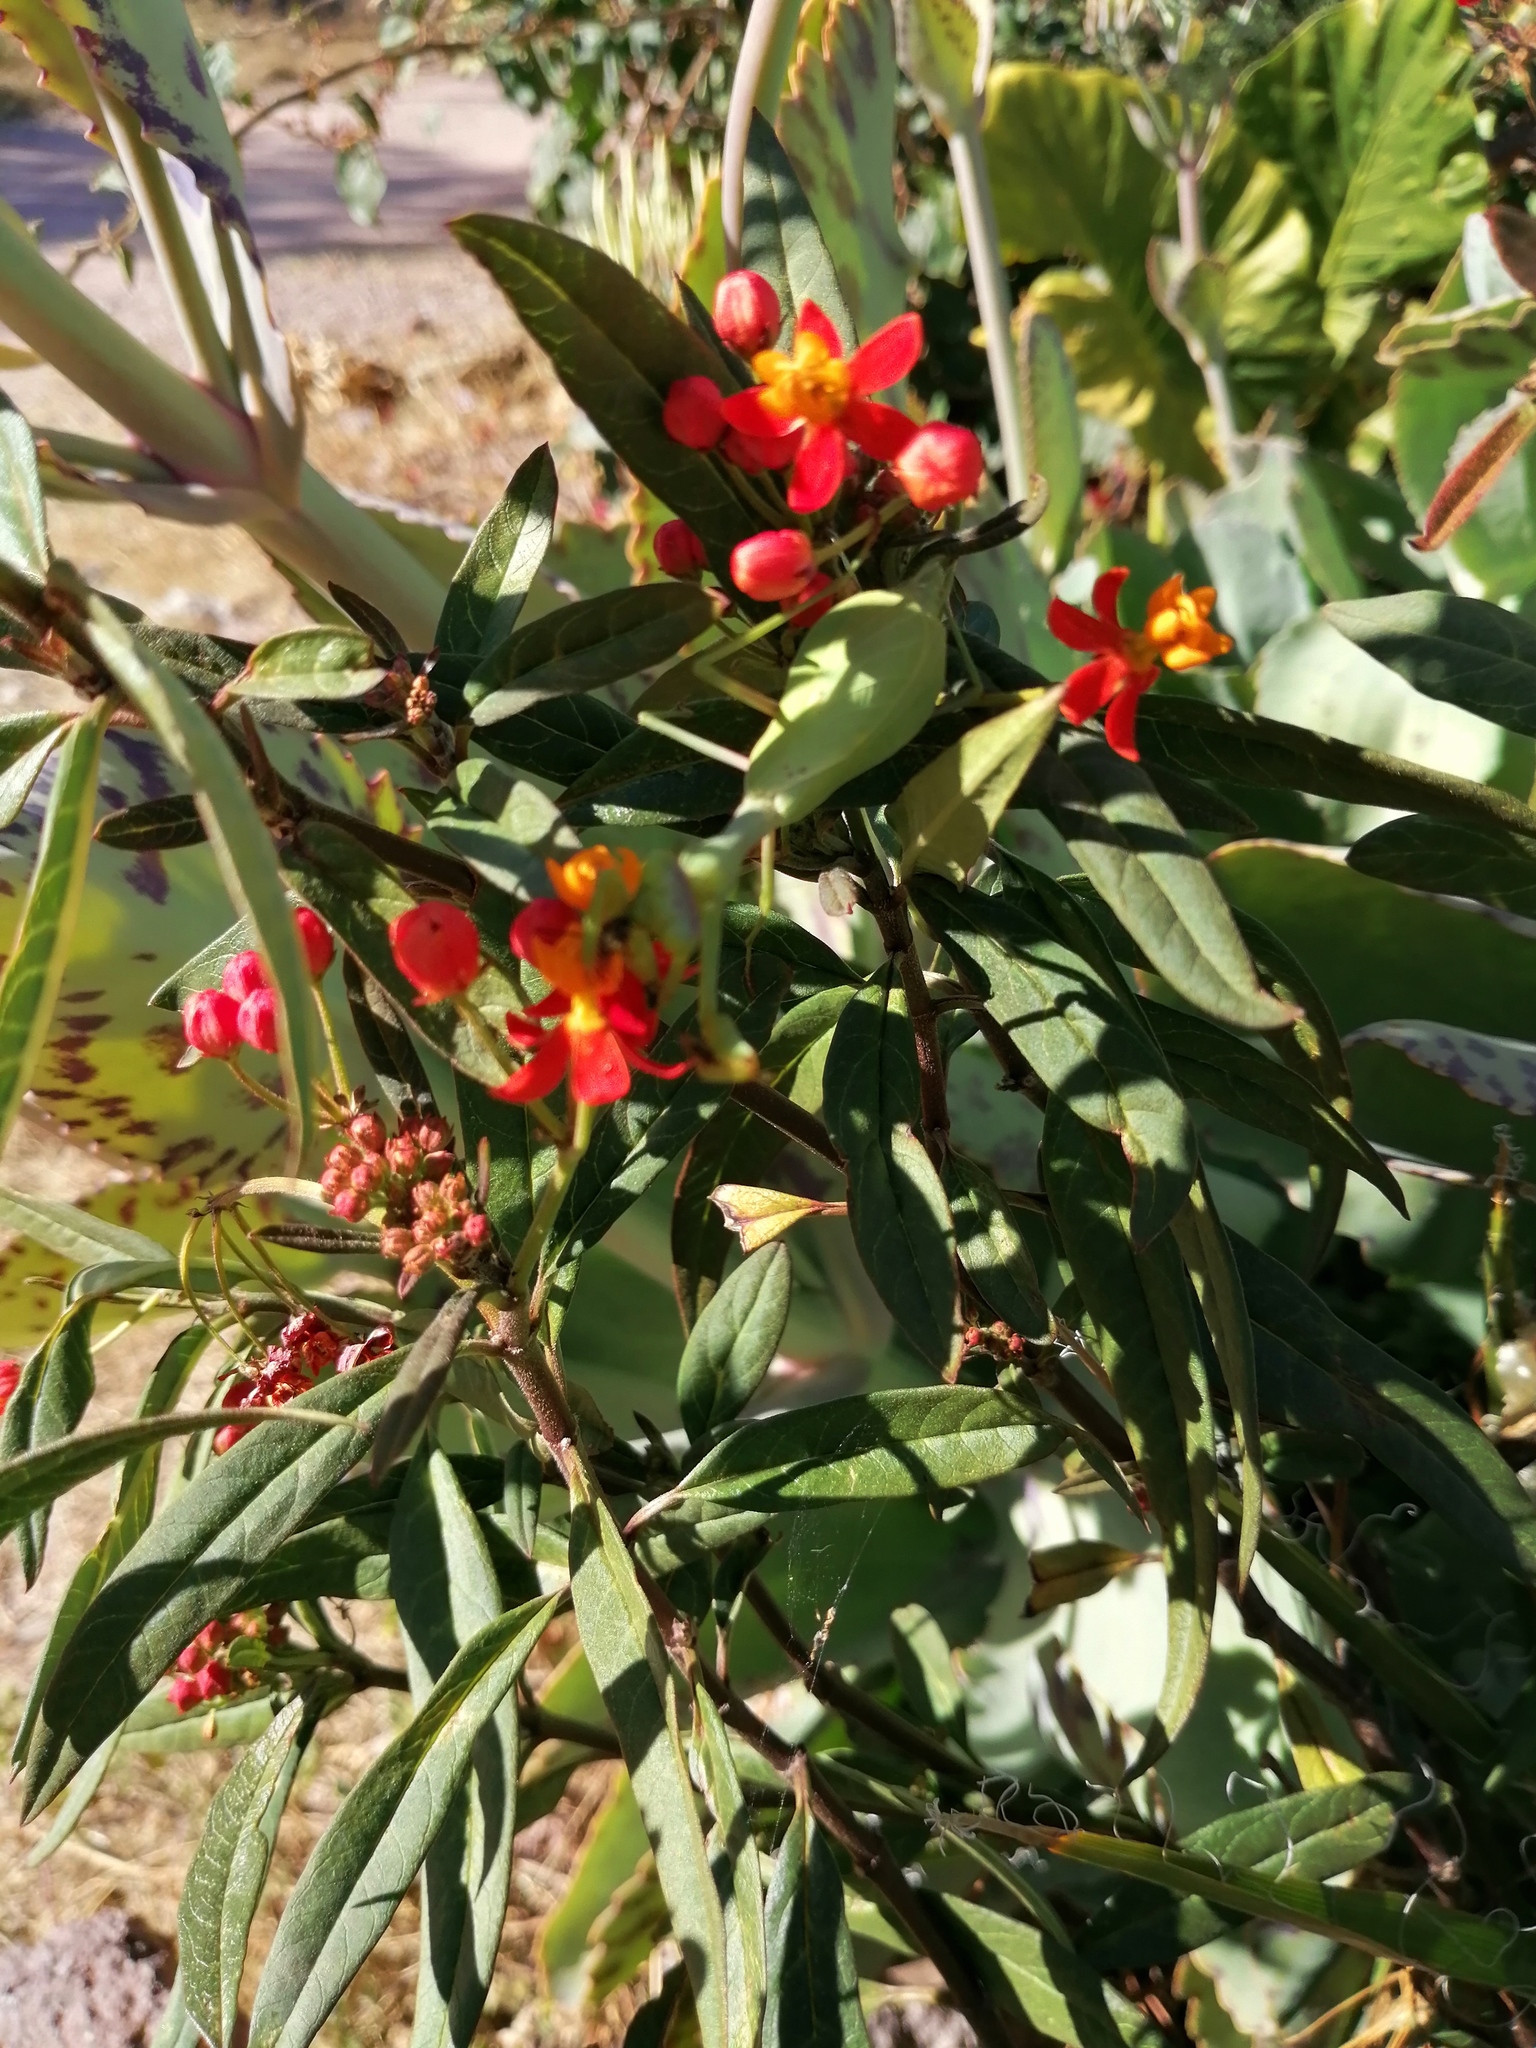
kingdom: Plantae
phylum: Tracheophyta
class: Magnoliopsida
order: Gentianales
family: Apocynaceae
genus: Asclepias
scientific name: Asclepias curassavica
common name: Bloodflower
